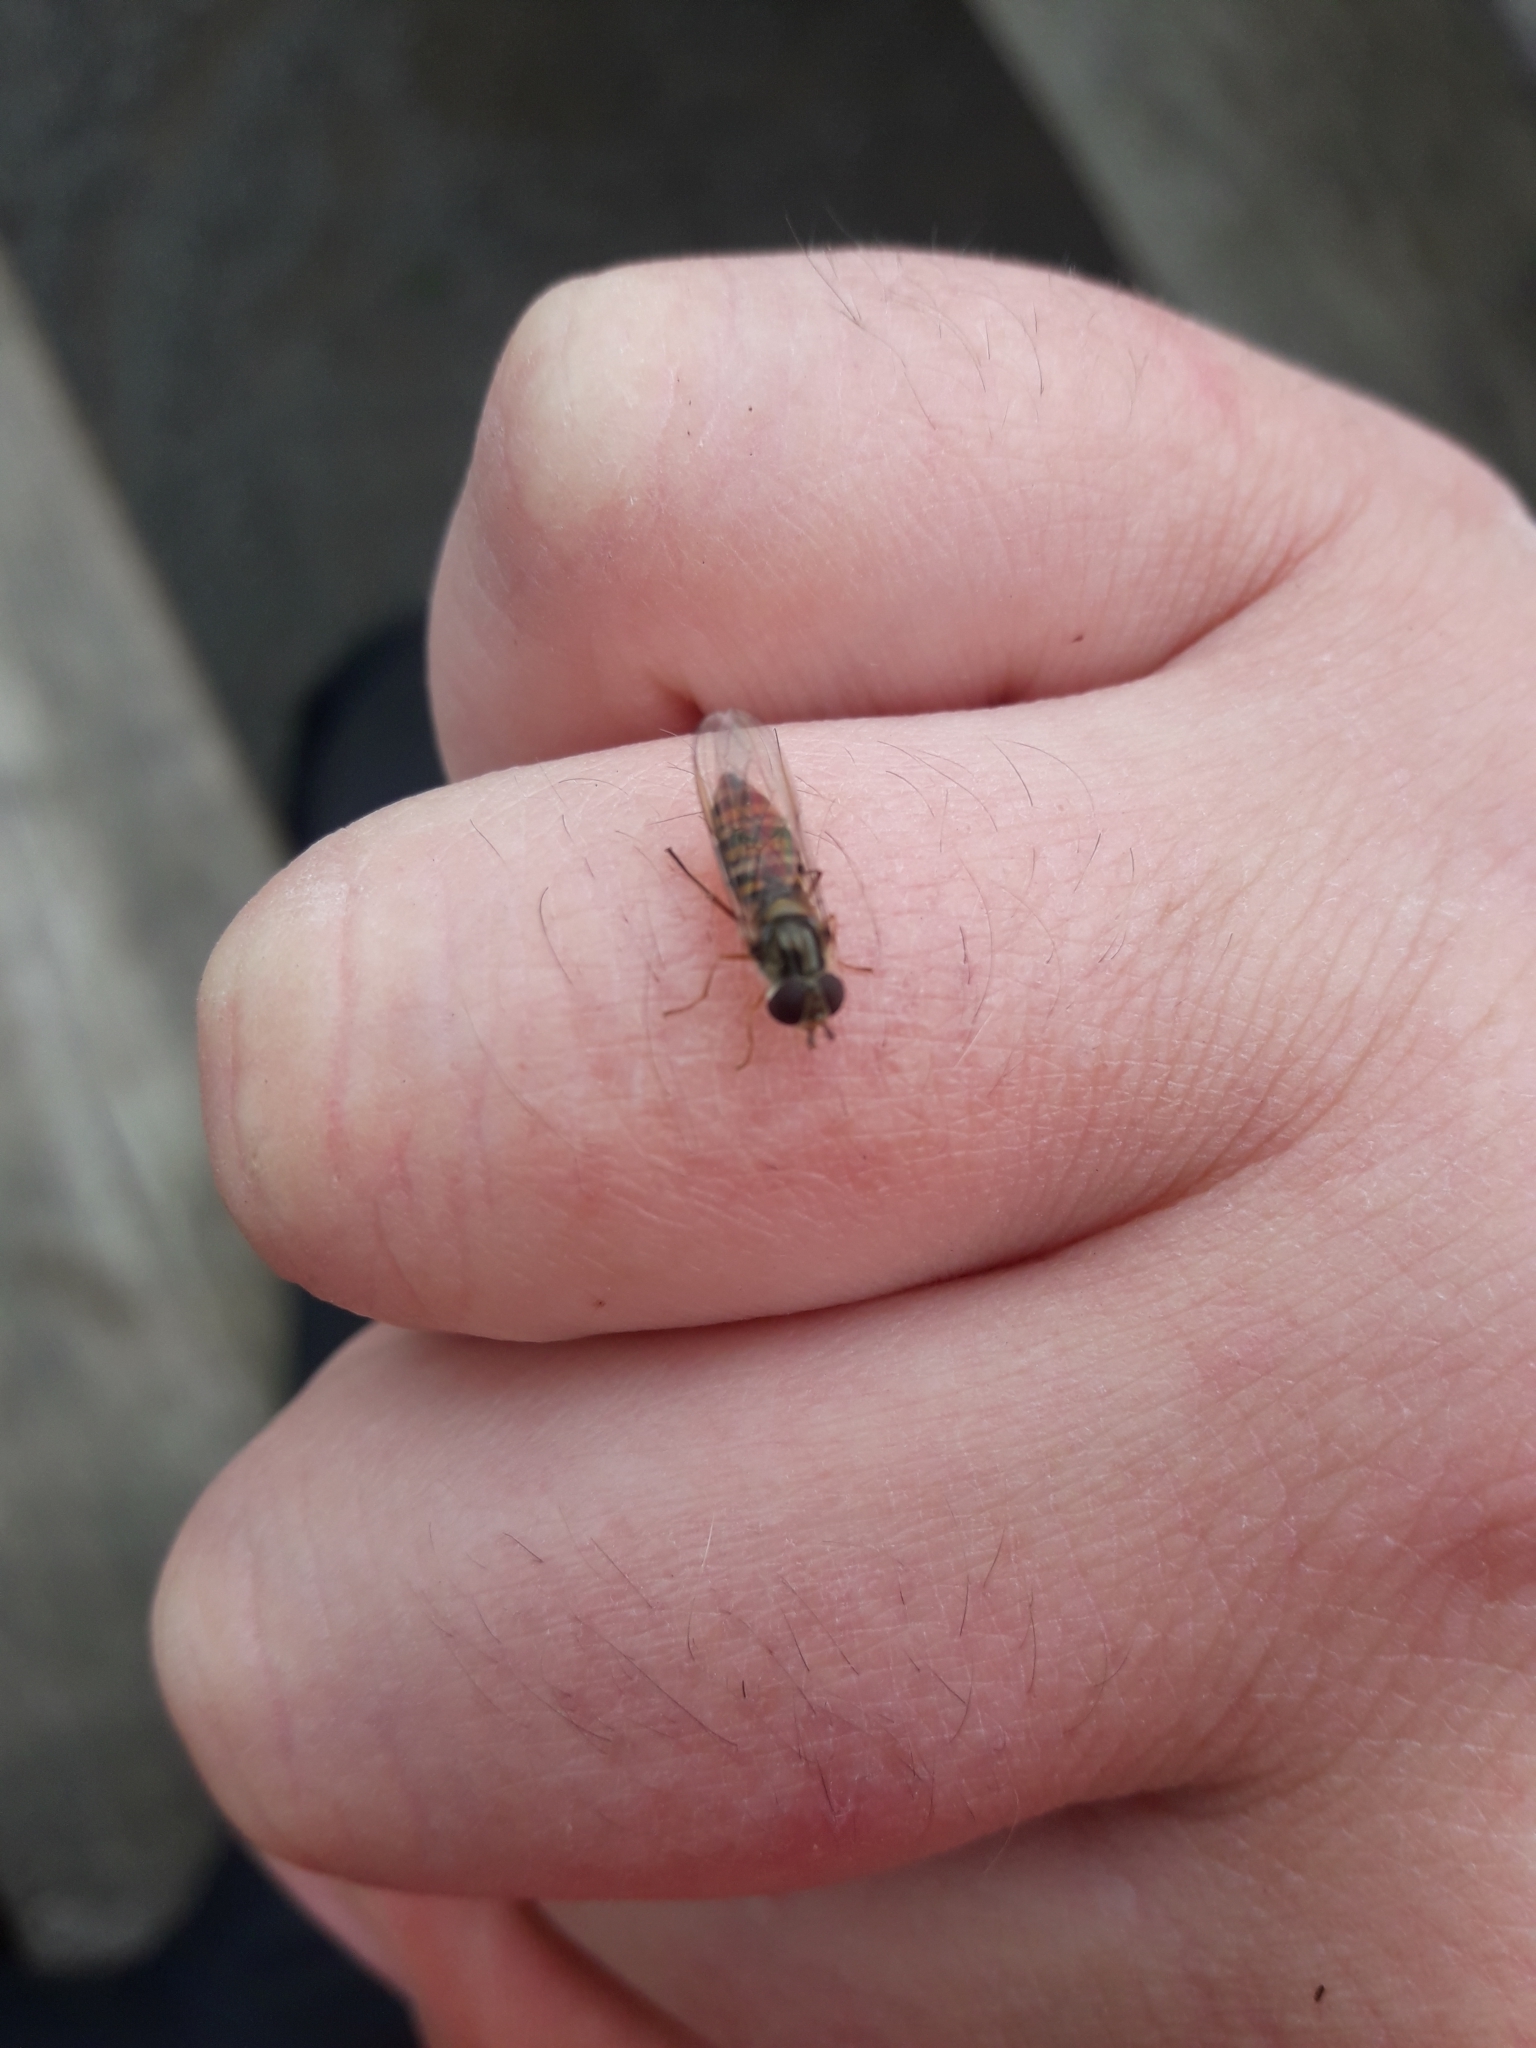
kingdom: Animalia
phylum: Arthropoda
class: Insecta
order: Diptera
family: Syrphidae
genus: Episyrphus
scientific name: Episyrphus balteatus
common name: Marmalade hoverfly
